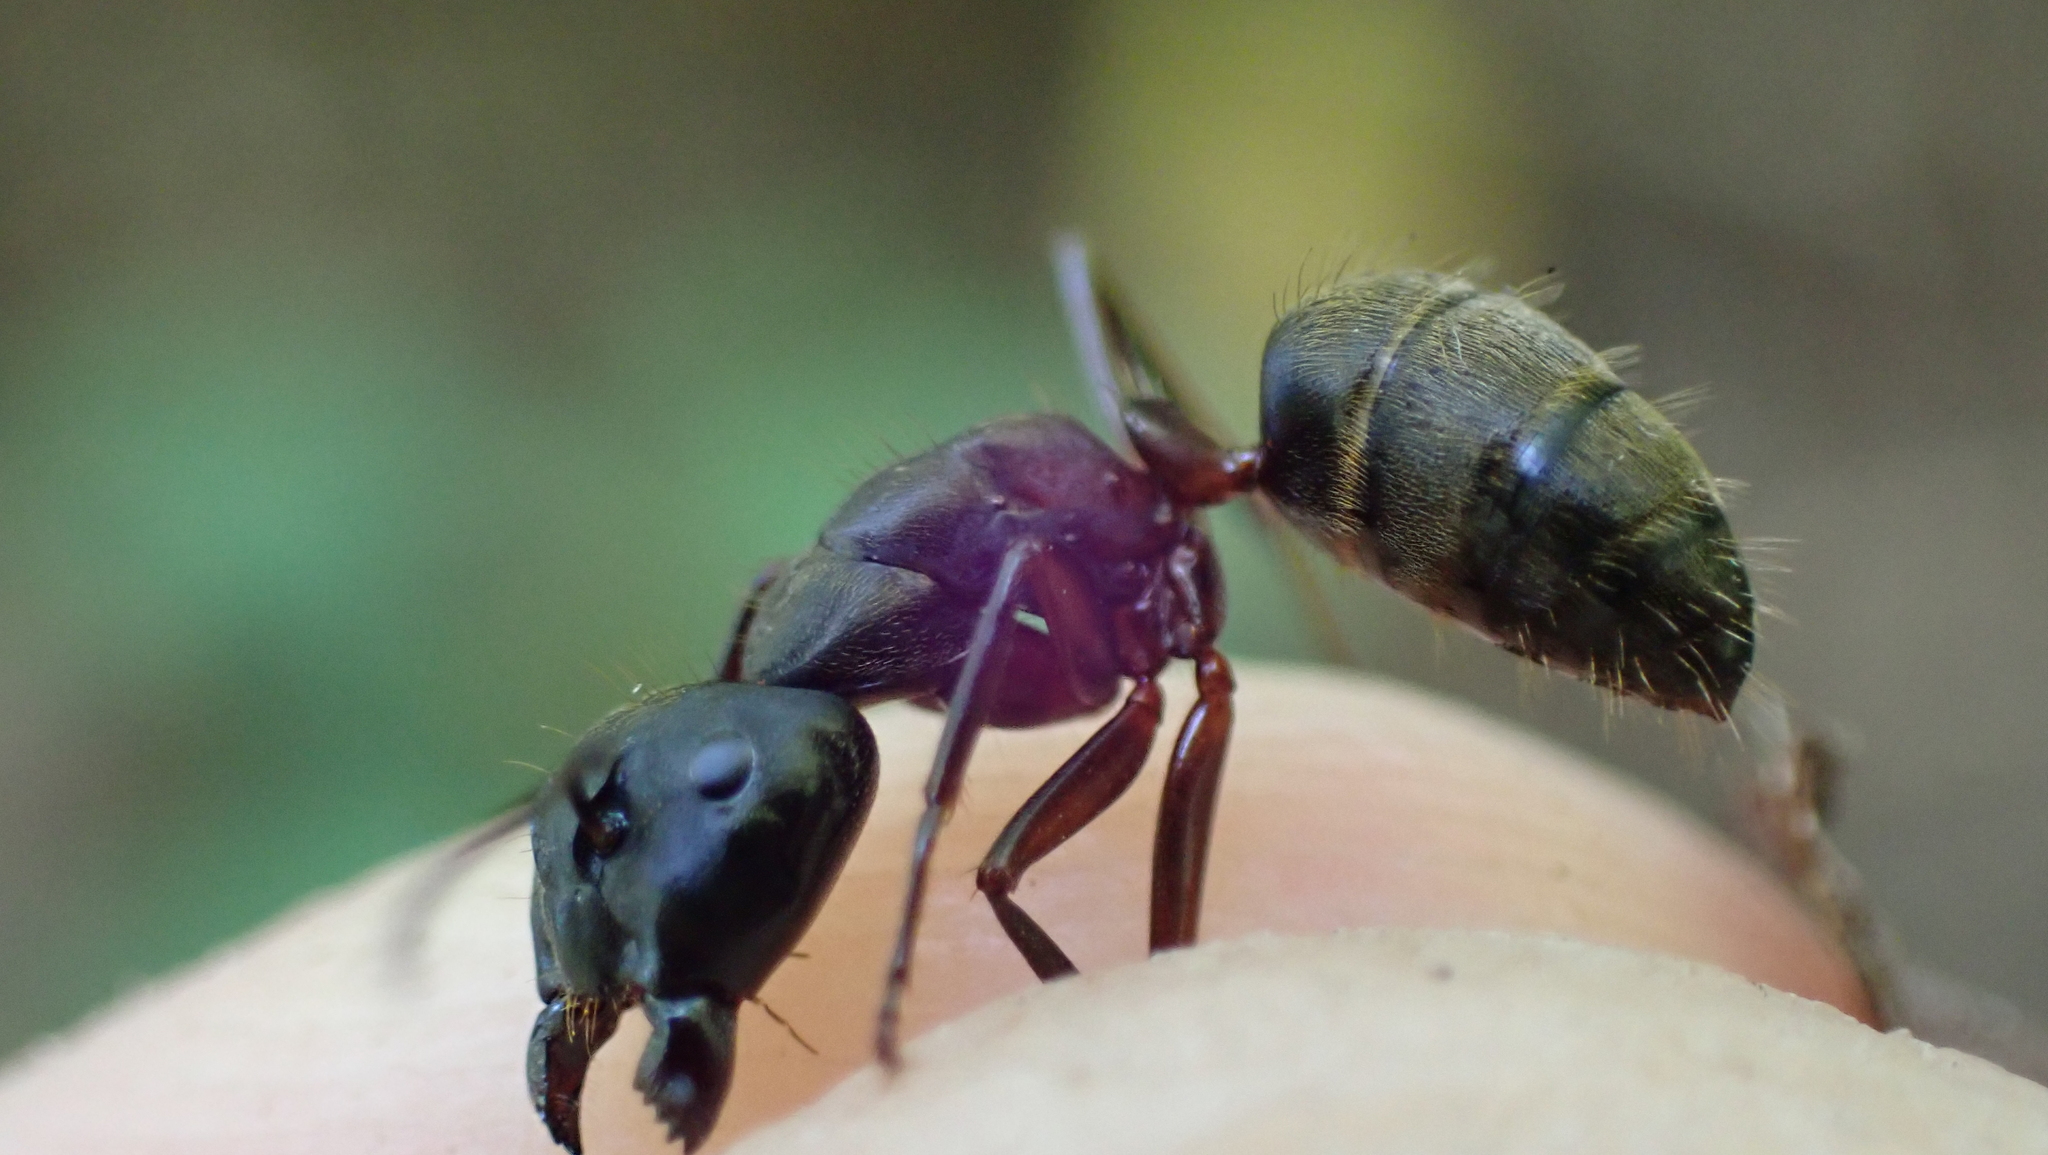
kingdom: Animalia
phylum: Arthropoda
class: Insecta
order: Hymenoptera
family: Formicidae
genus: Camponotus
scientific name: Camponotus chromaiodes
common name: Red carpenter ant
